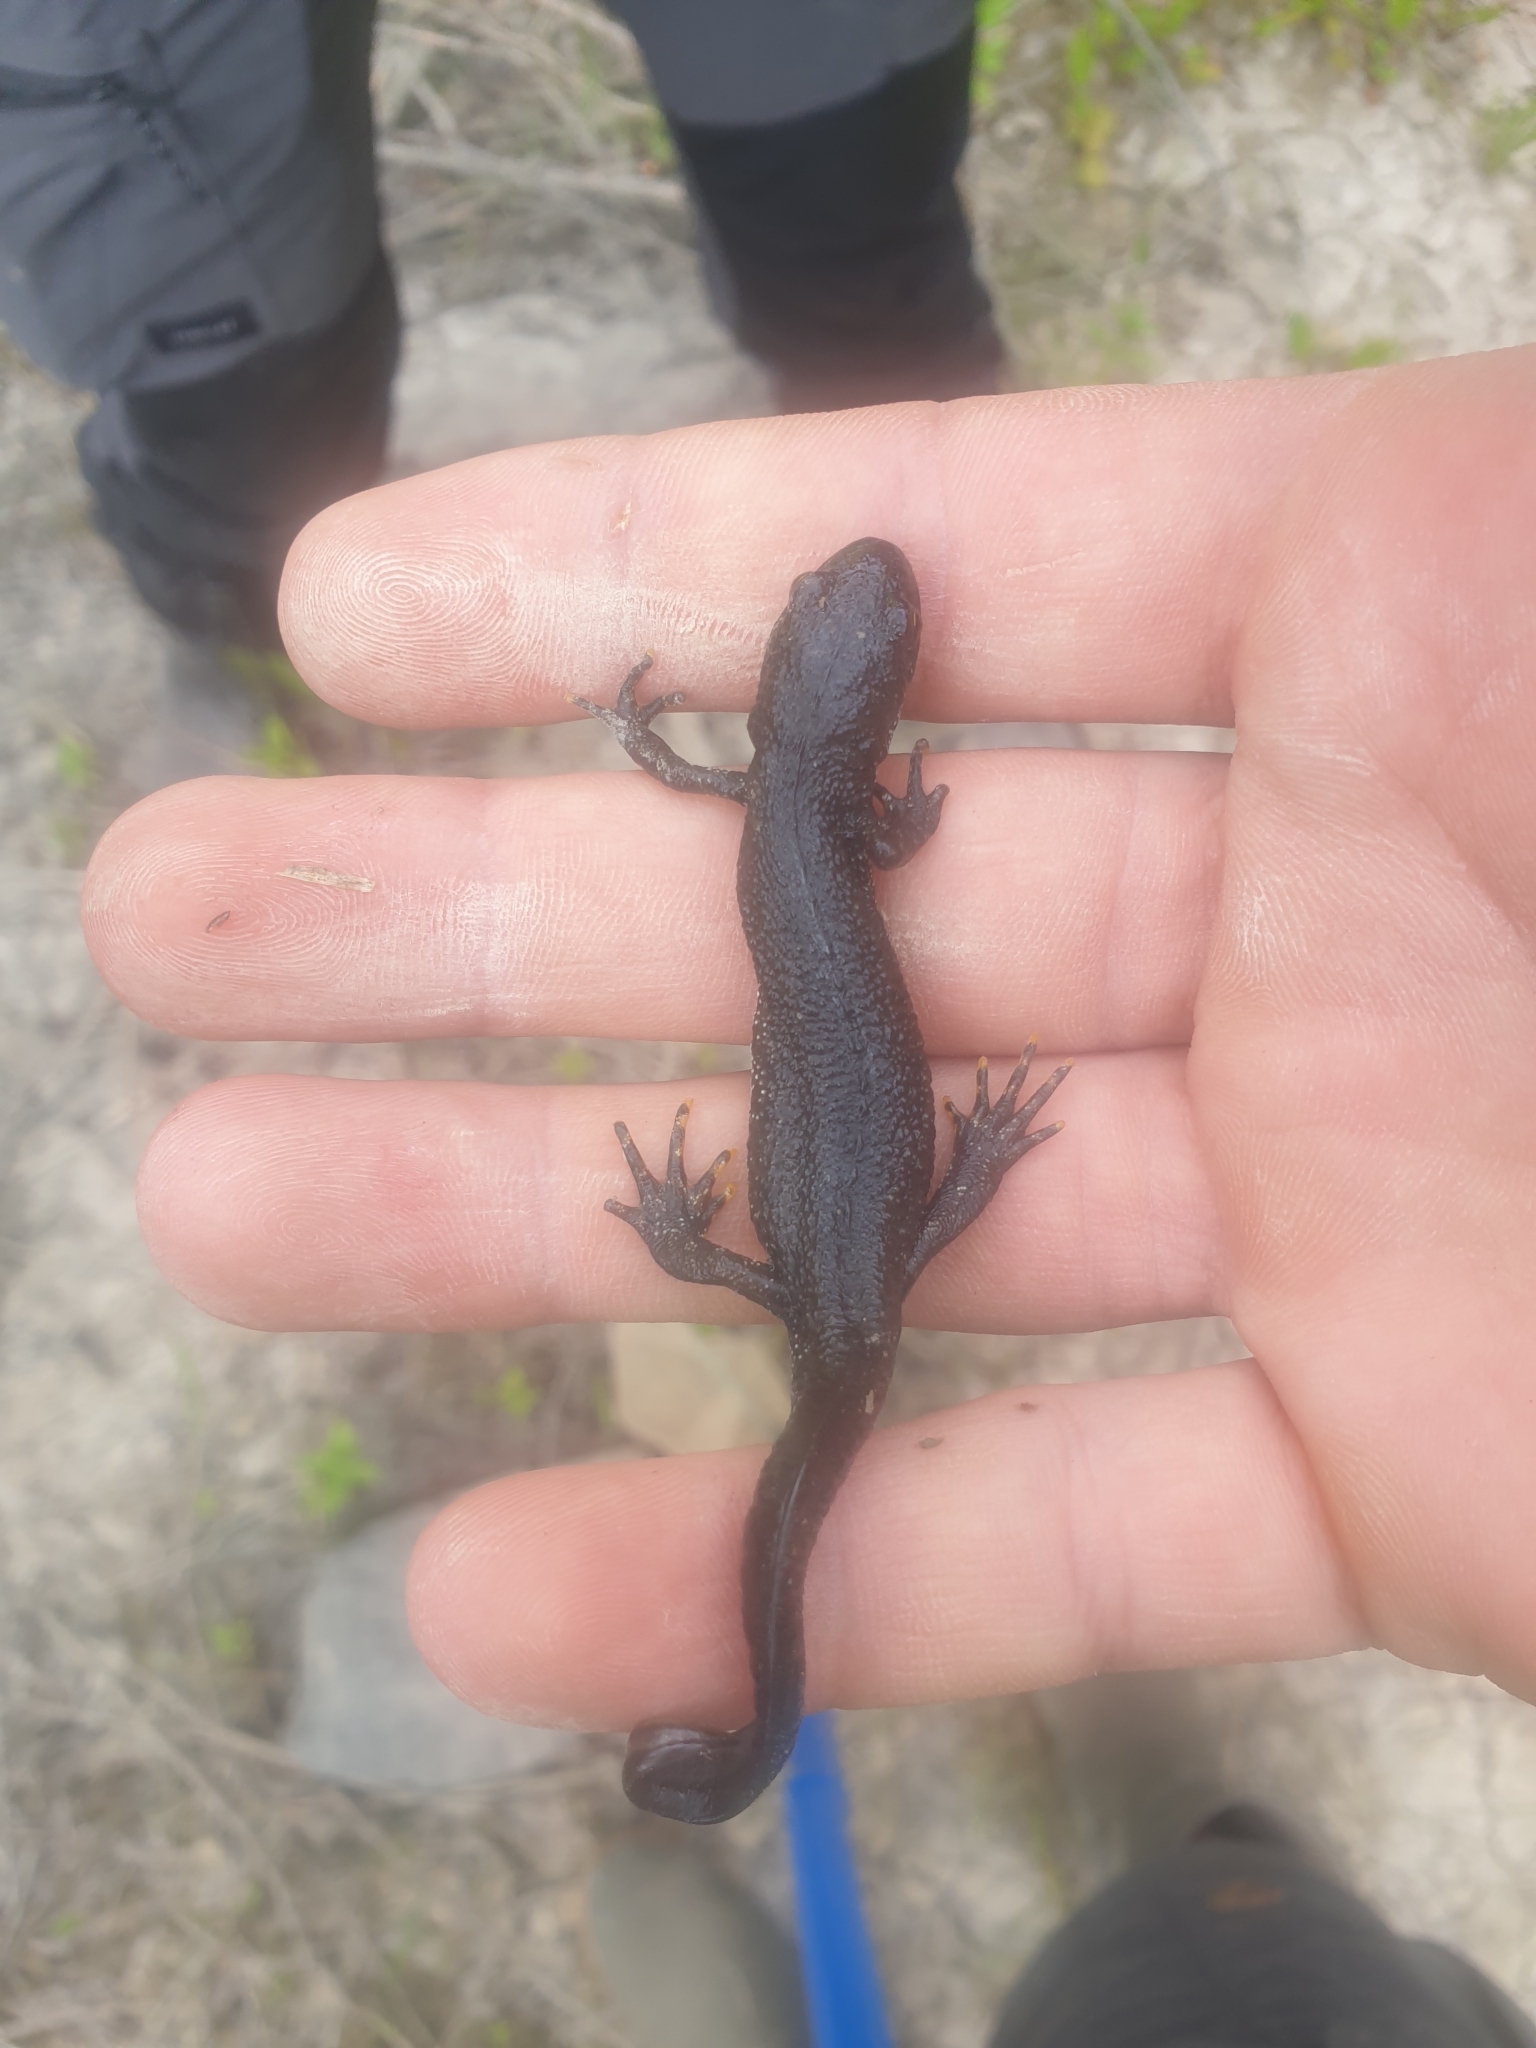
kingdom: Animalia
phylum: Chordata
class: Amphibia
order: Caudata
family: Salamandridae
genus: Triturus
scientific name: Triturus cristatus
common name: Crested newt
